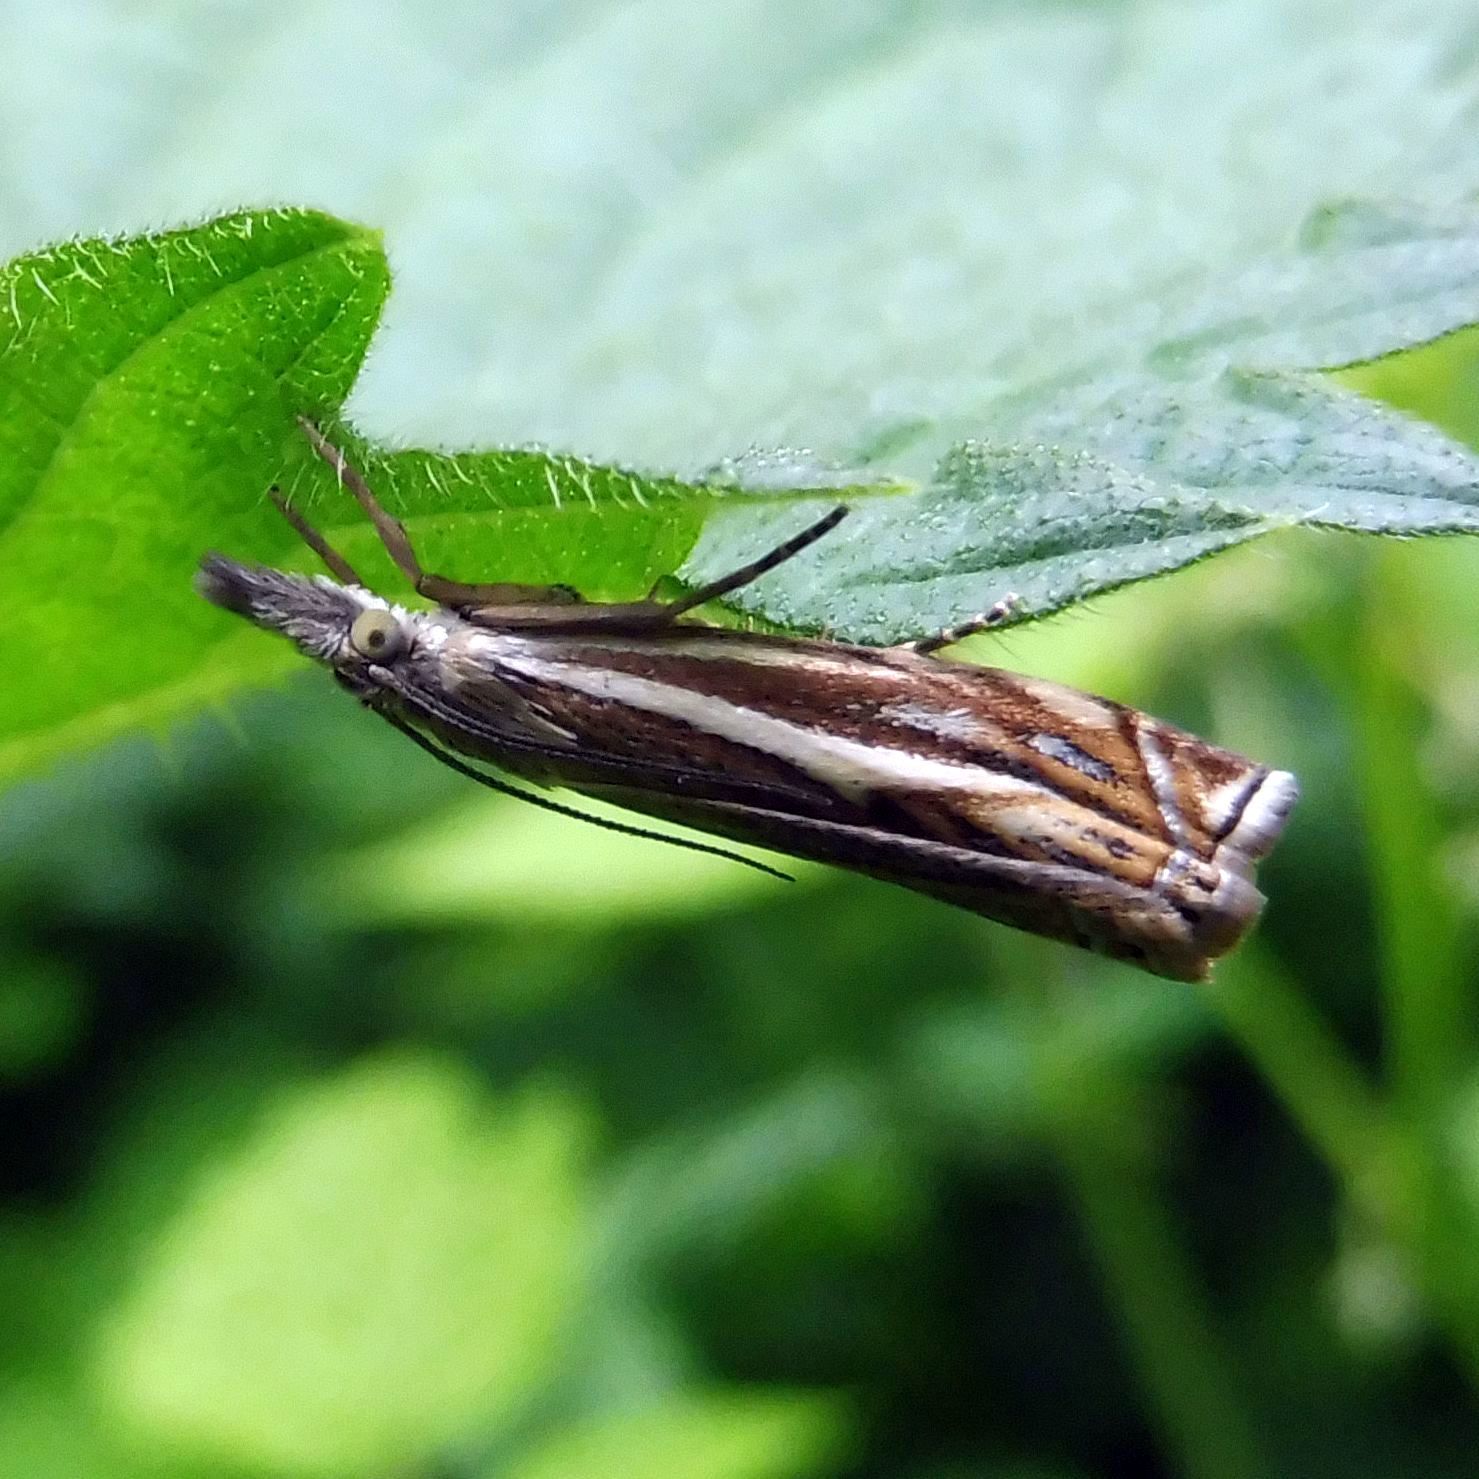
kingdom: Animalia
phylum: Arthropoda
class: Insecta
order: Lepidoptera
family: Crambidae
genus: Crambus
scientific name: Crambus nemorella
